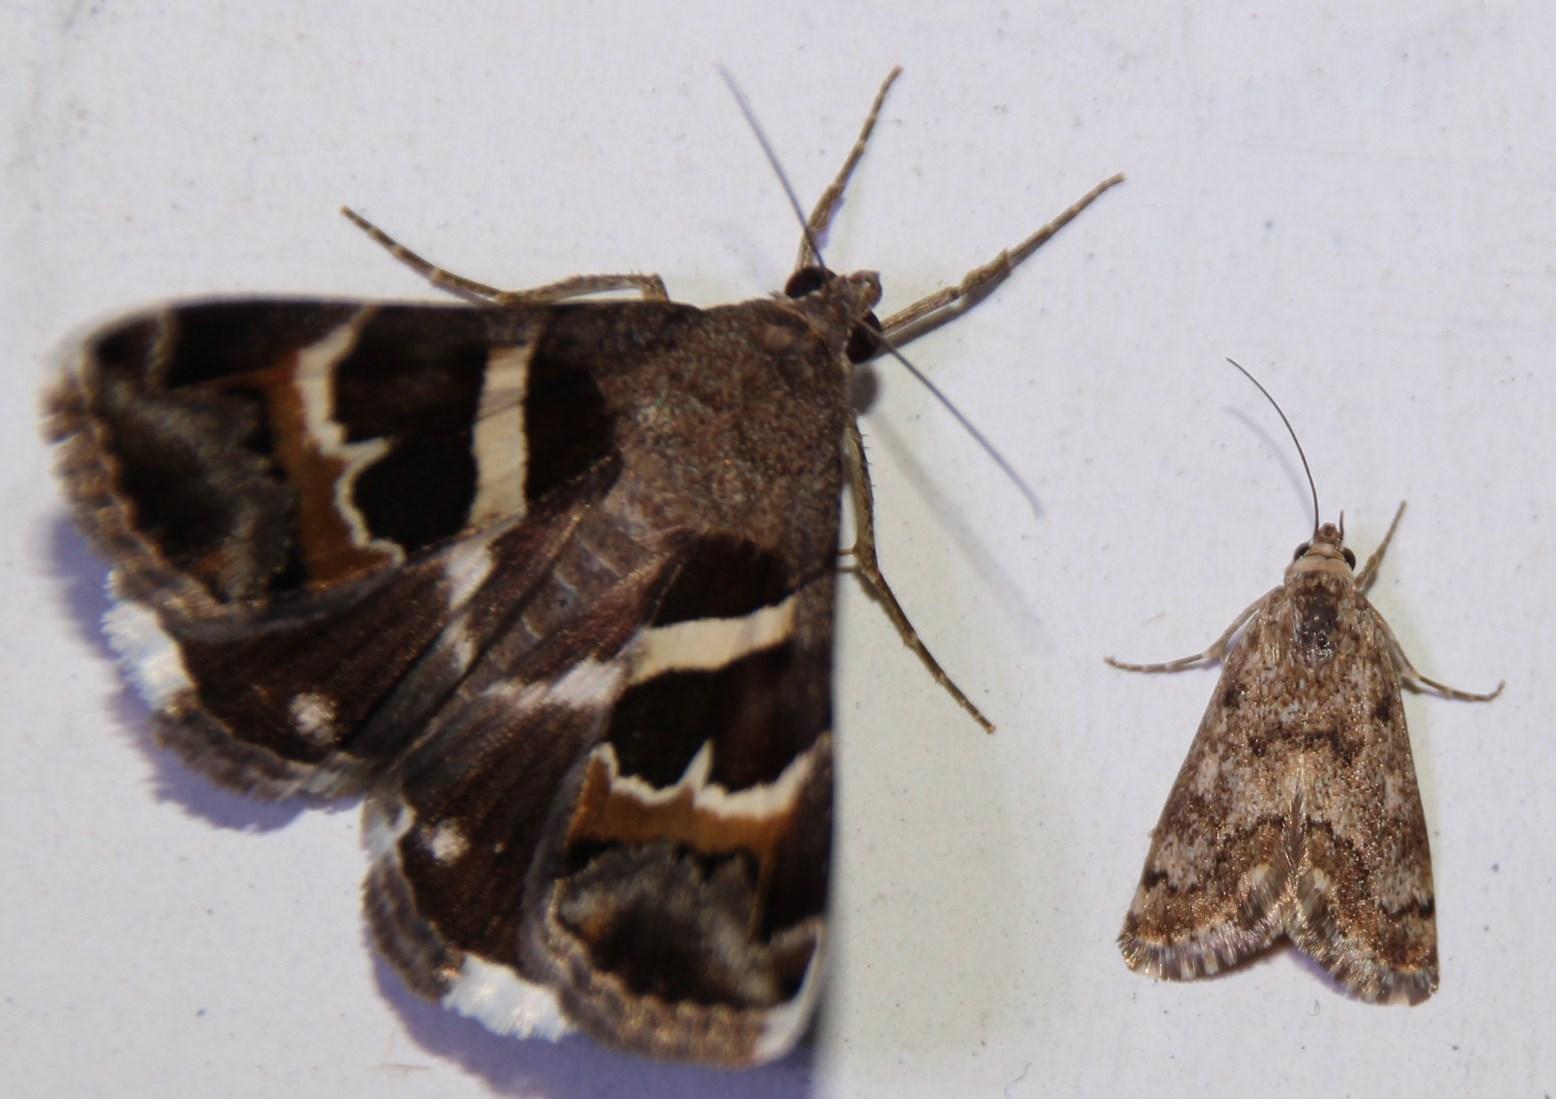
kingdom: Animalia
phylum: Arthropoda
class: Insecta
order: Lepidoptera
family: Erebidae
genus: Grammodes
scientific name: Grammodes stolida
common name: Geometrician
